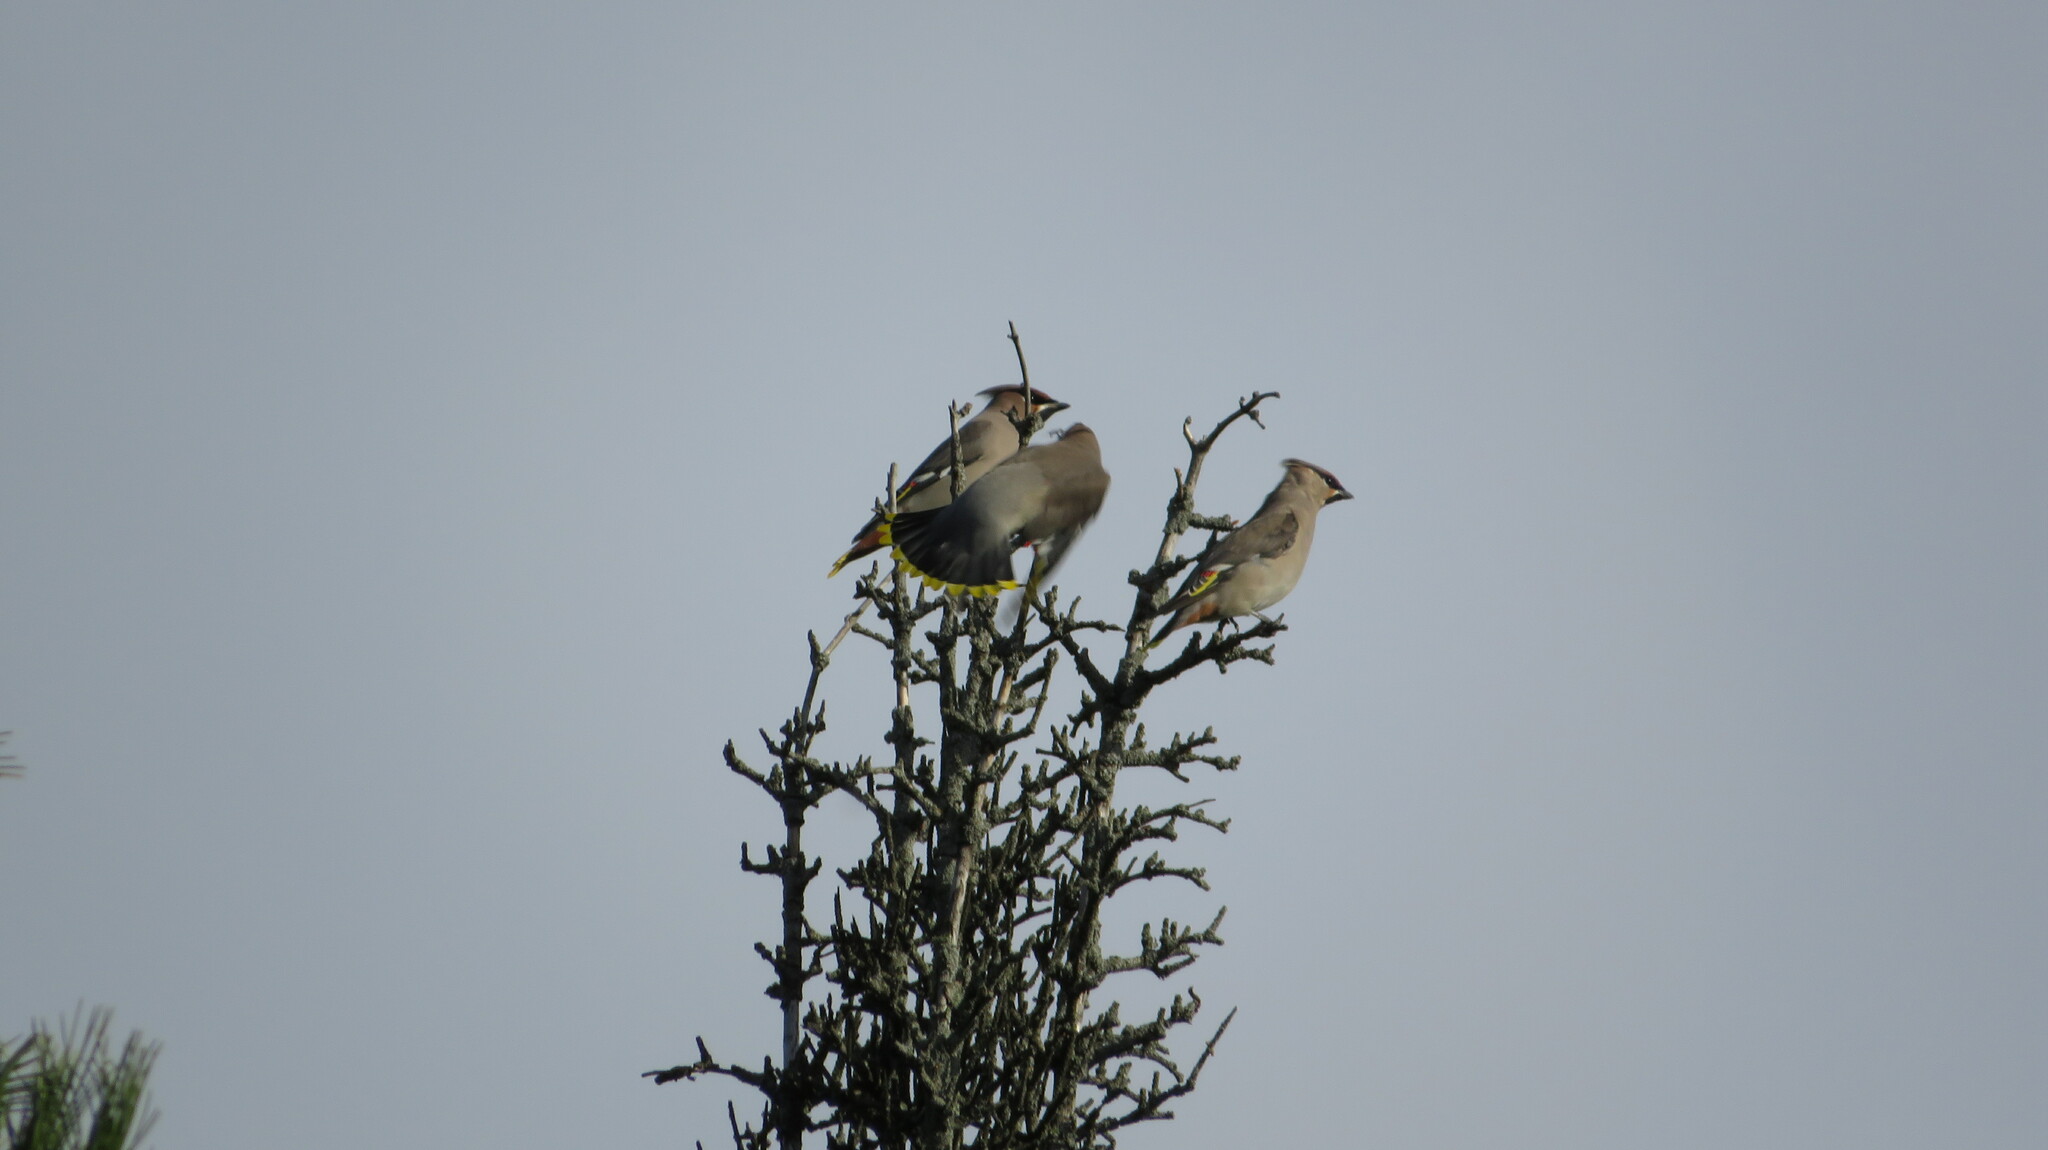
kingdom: Animalia
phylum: Chordata
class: Aves
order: Passeriformes
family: Bombycillidae
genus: Bombycilla
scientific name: Bombycilla garrulus
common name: Bohemian waxwing
